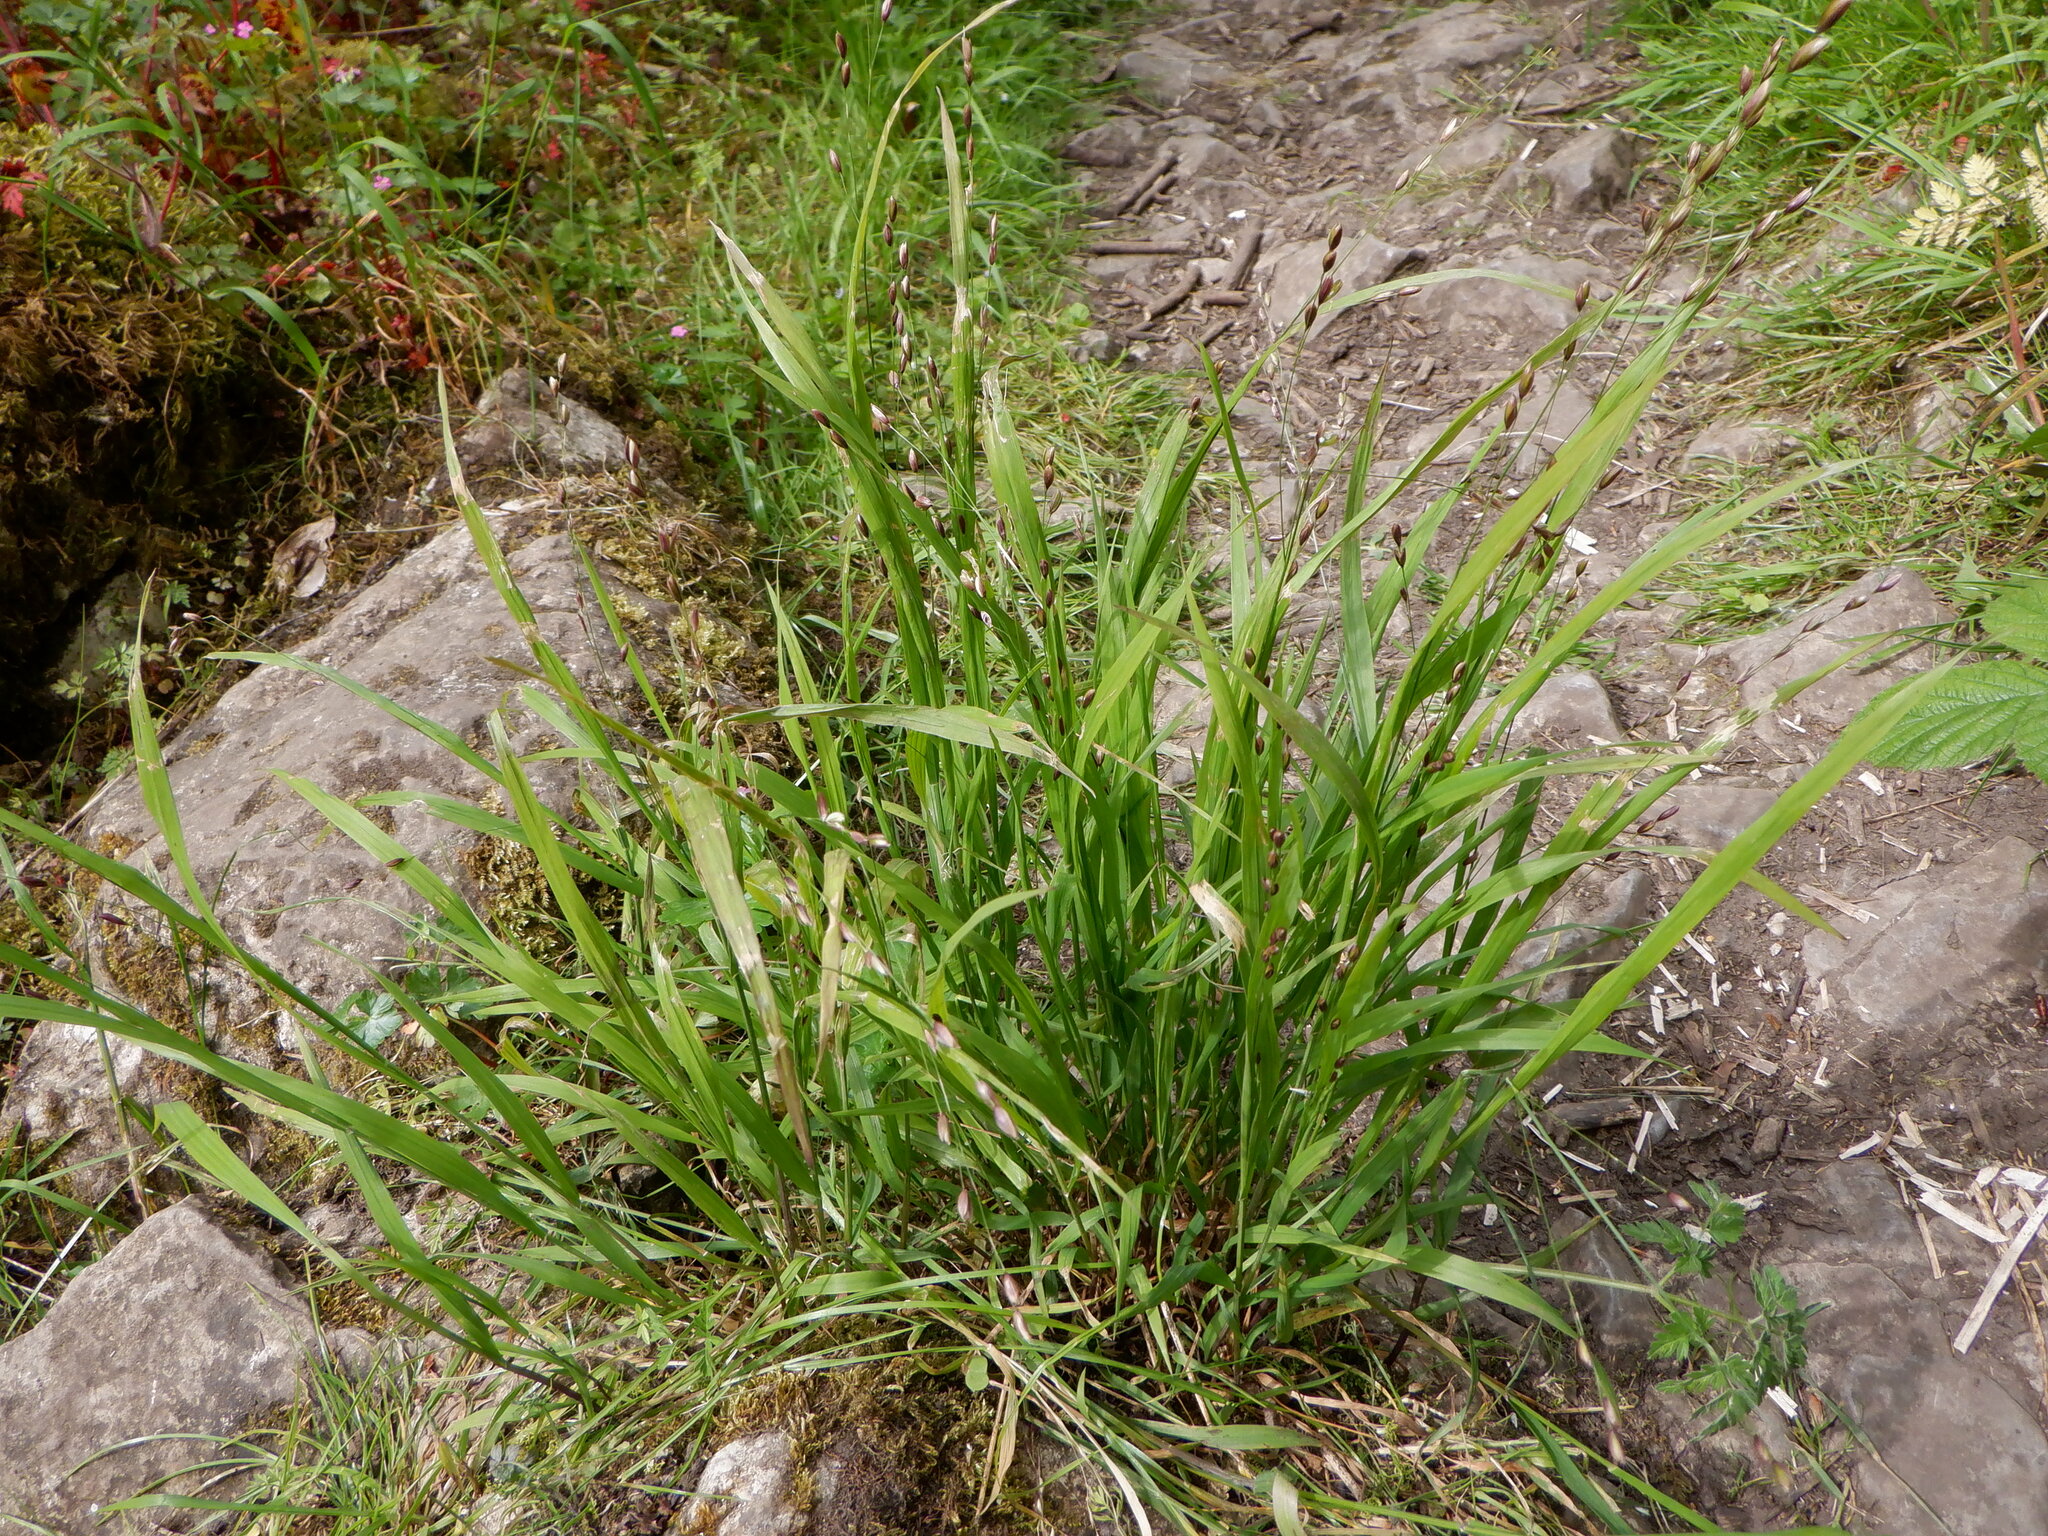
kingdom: Plantae
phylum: Tracheophyta
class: Liliopsida
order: Poales
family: Poaceae
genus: Melica
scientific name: Melica uniflora
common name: Wood melick
